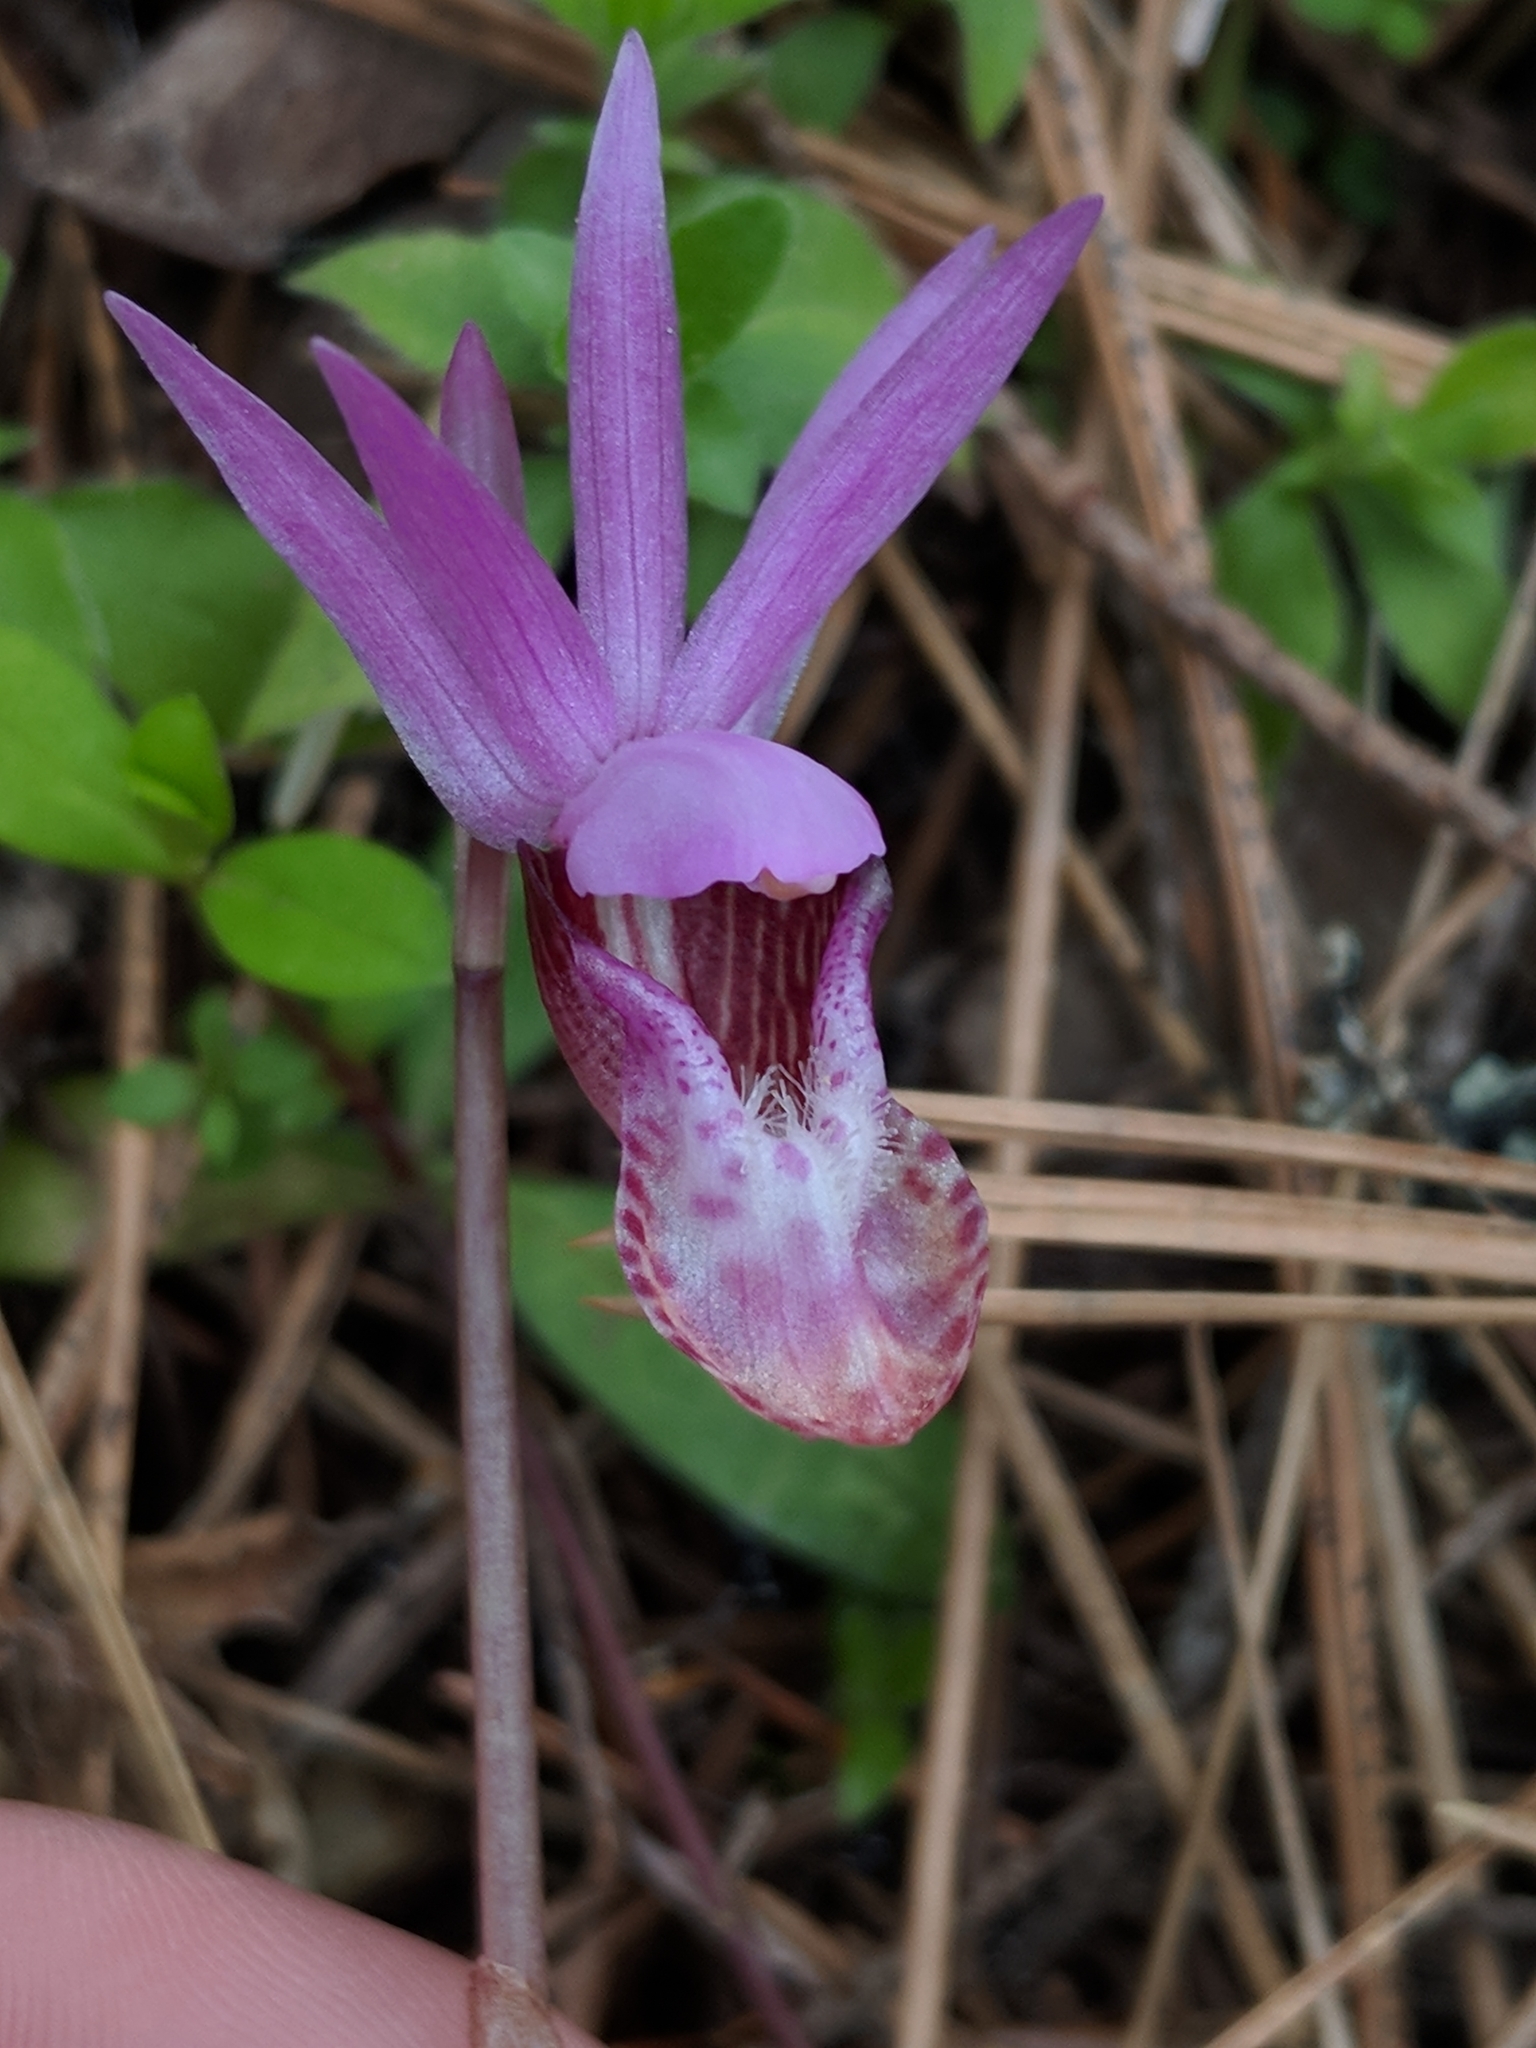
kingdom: Plantae
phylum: Tracheophyta
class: Liliopsida
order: Asparagales
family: Orchidaceae
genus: Calypso
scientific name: Calypso bulbosa
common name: Calypso
